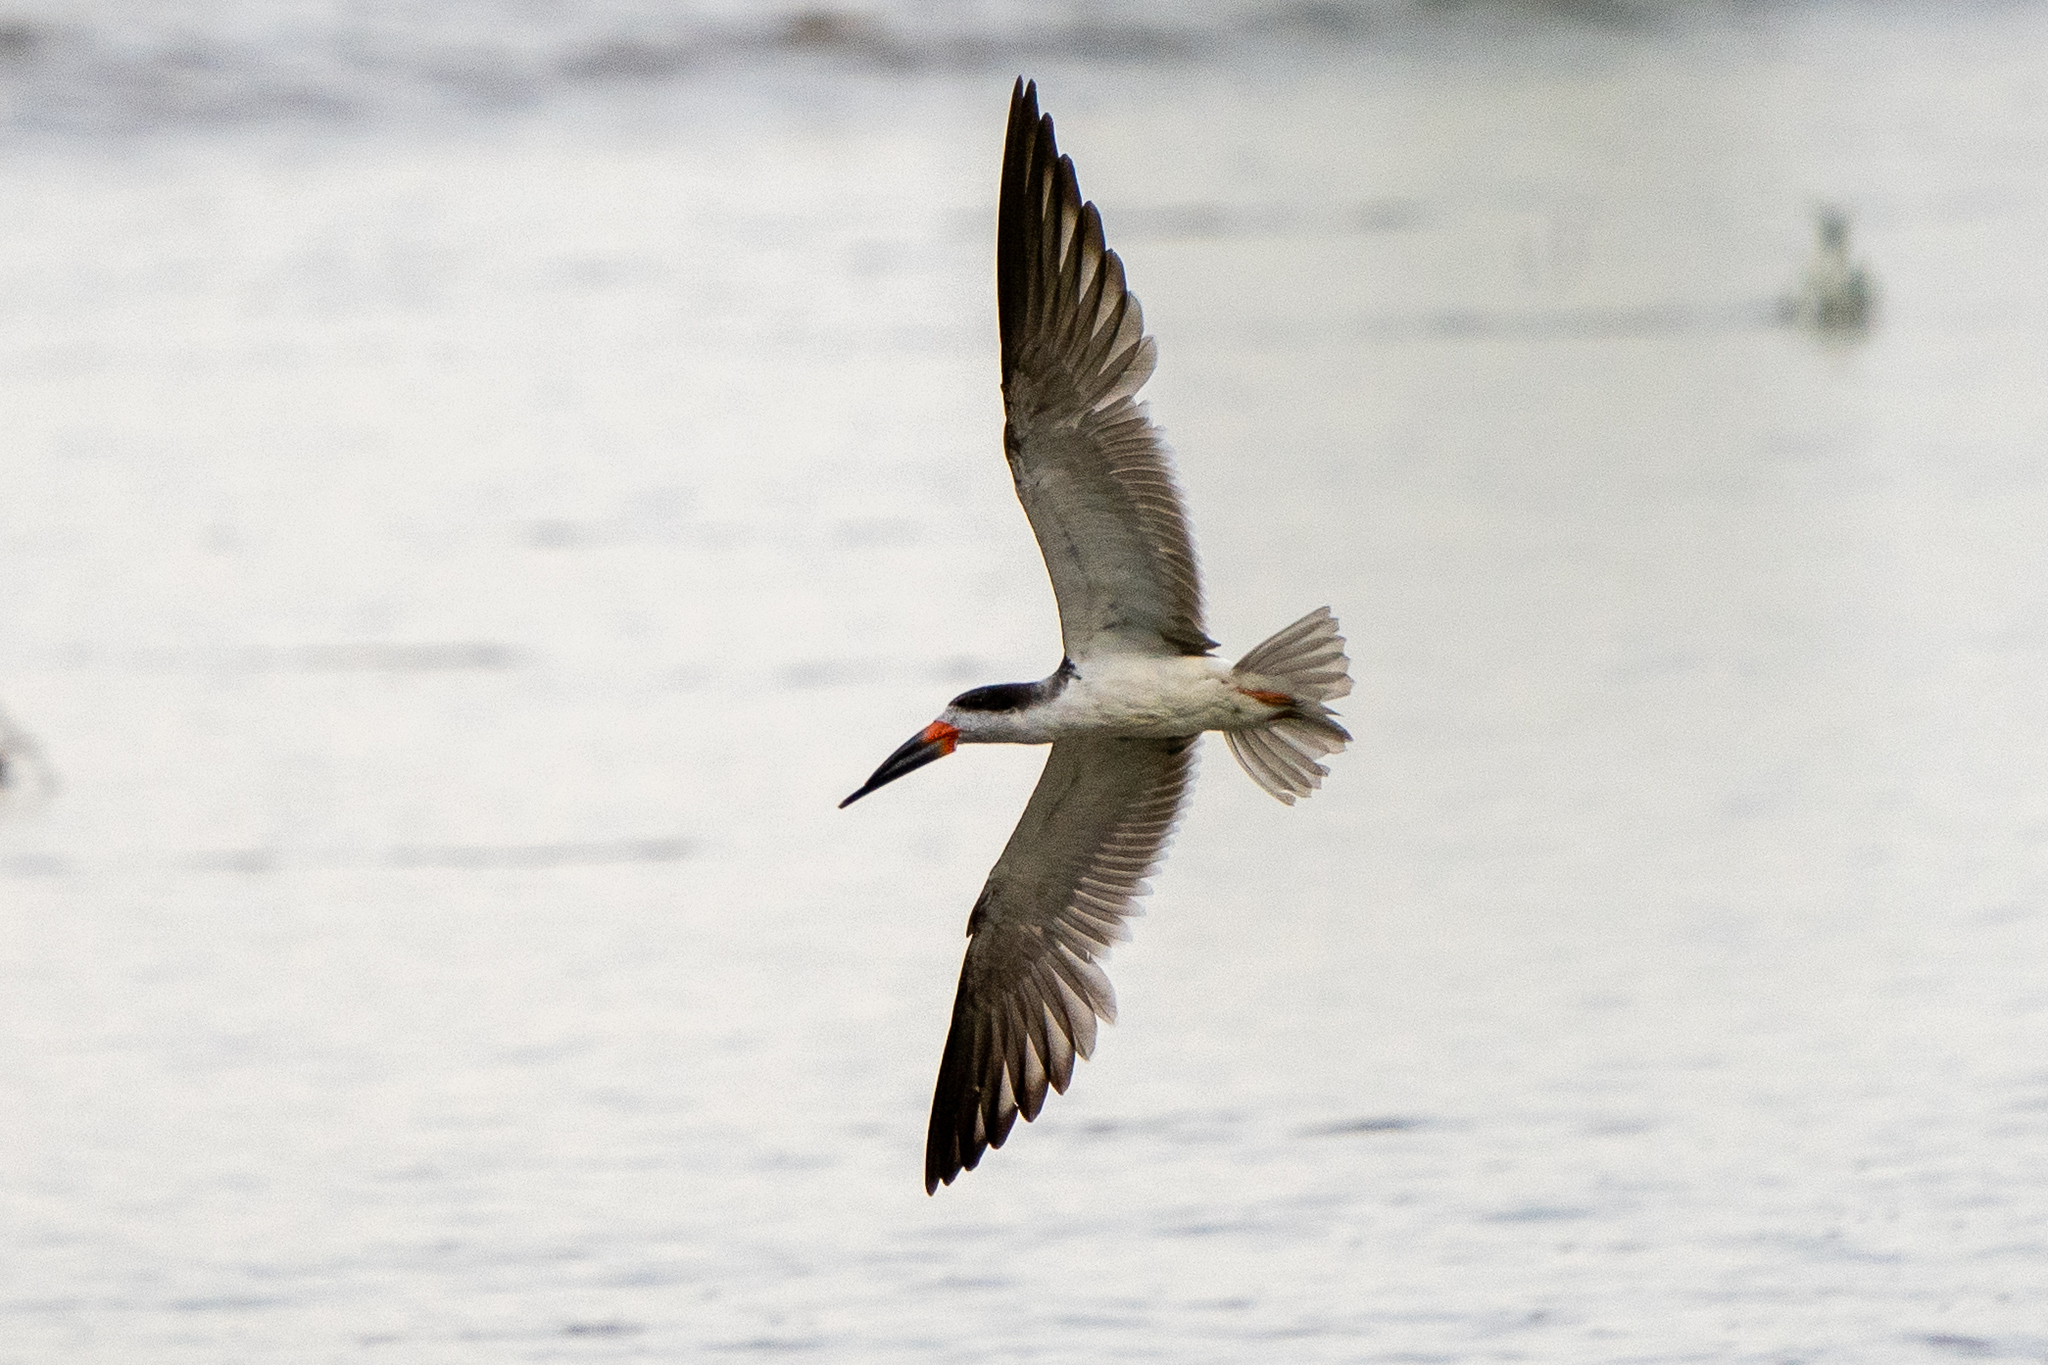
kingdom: Animalia
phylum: Chordata
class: Aves
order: Charadriiformes
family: Laridae
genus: Rynchops
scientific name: Rynchops niger
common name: Black skimmer
